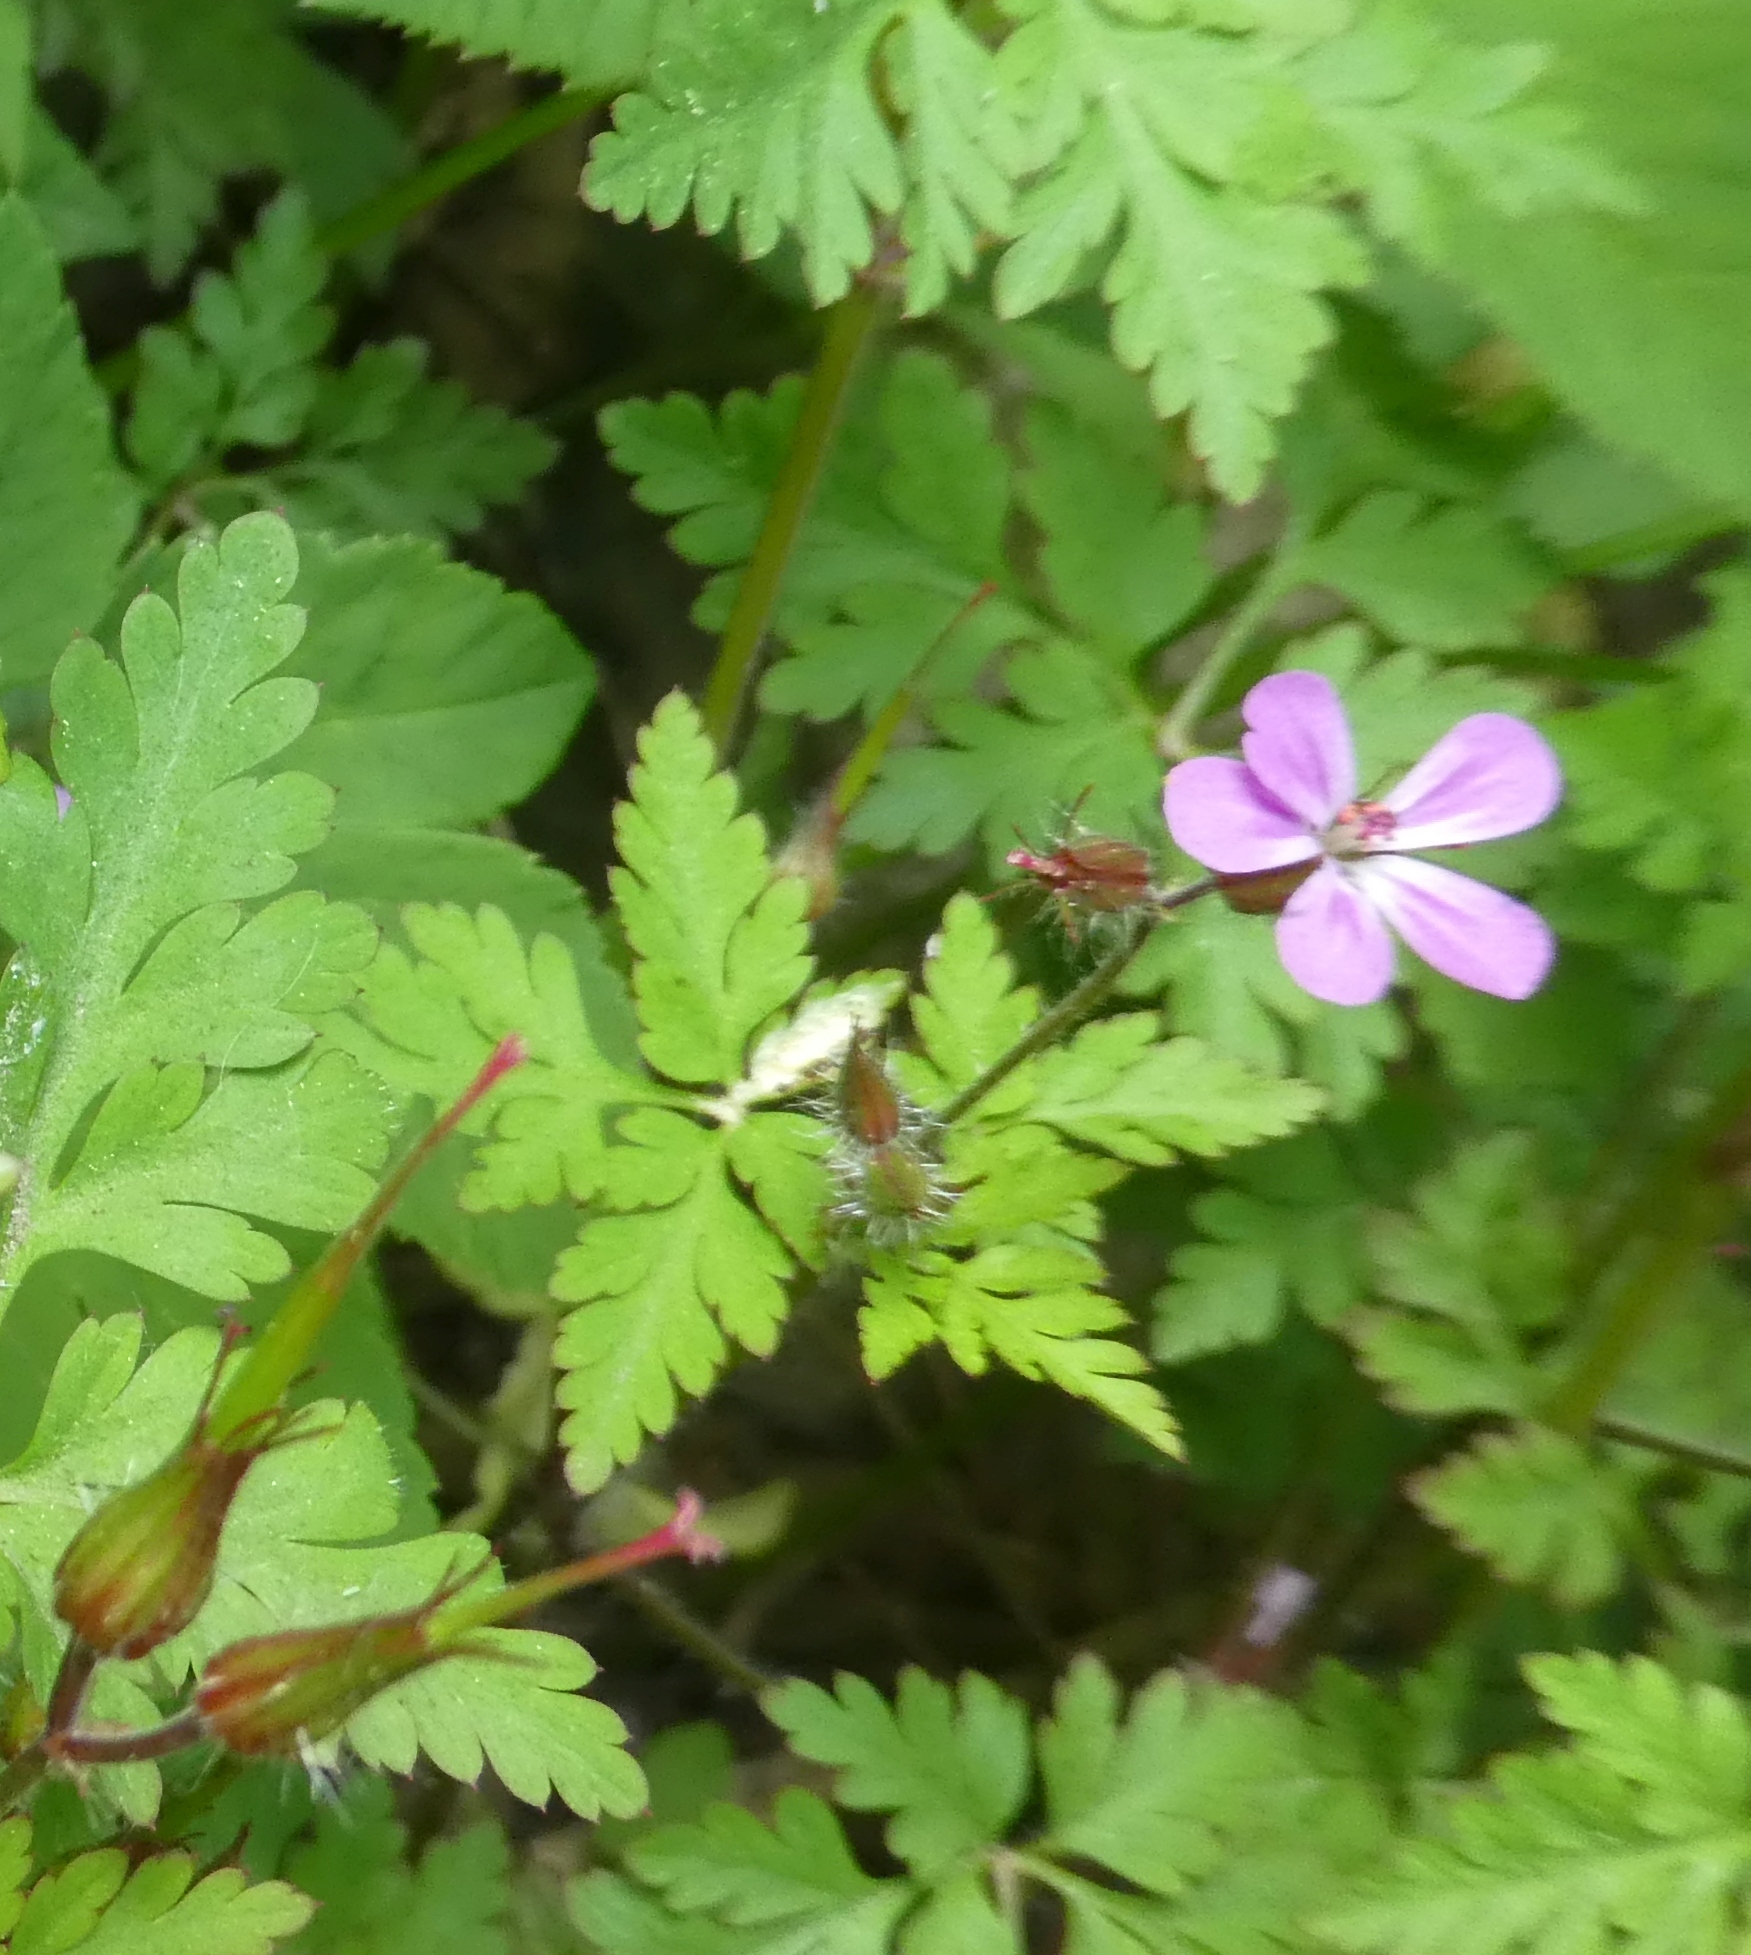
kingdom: Plantae
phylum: Tracheophyta
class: Magnoliopsida
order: Geraniales
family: Geraniaceae
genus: Geranium
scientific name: Geranium robertianum
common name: Herb-robert
